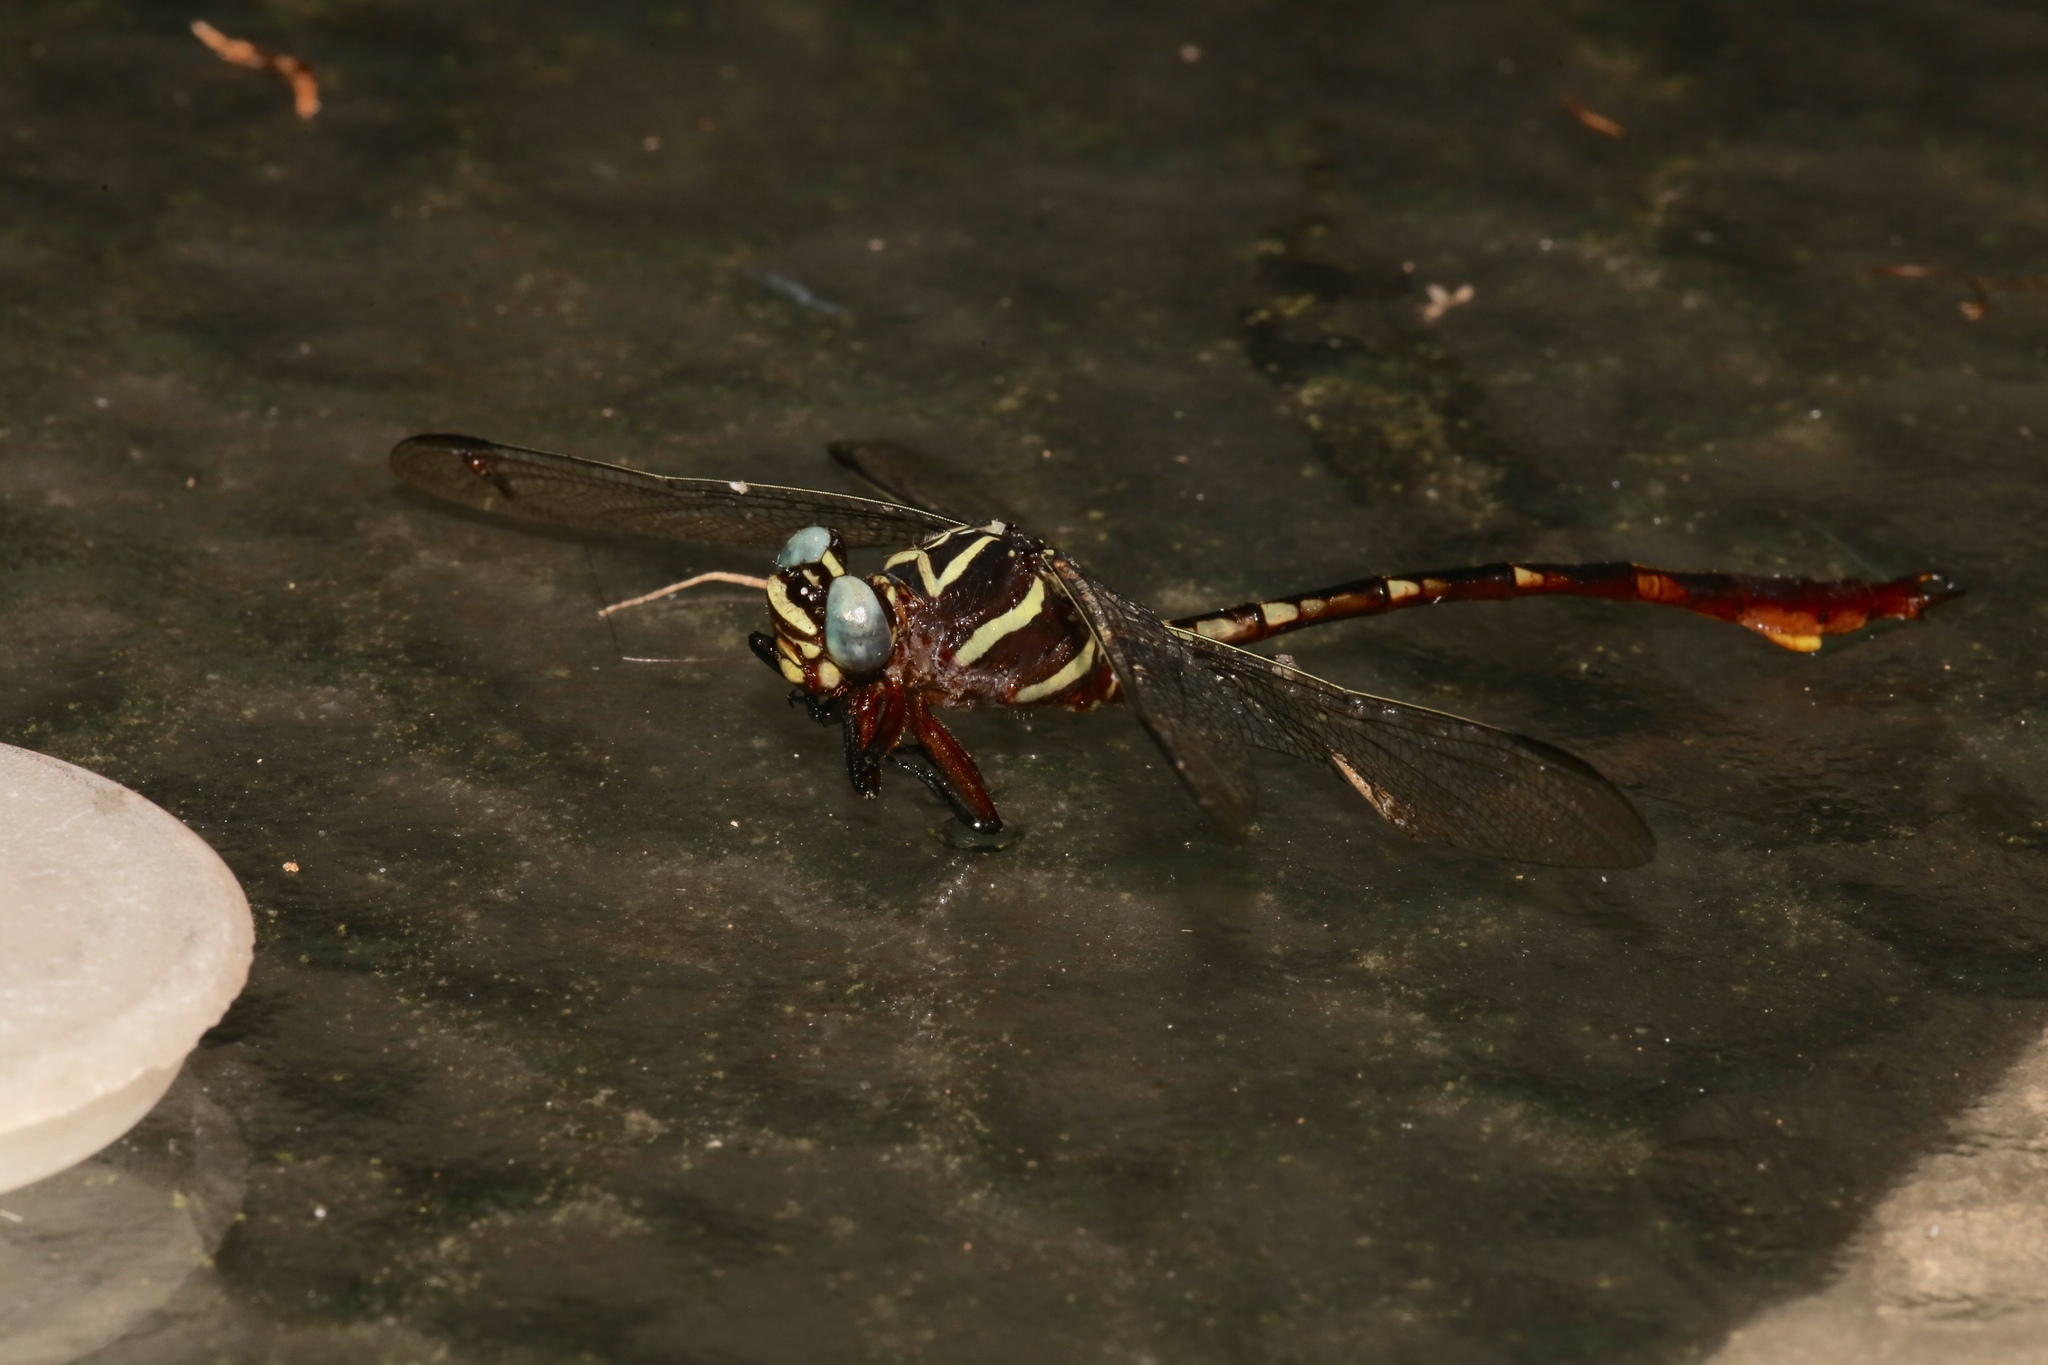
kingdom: Animalia
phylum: Arthropoda
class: Insecta
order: Odonata
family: Gomphidae
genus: Aphylla
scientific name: Aphylla williamsoni
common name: Two-striped forceptail
